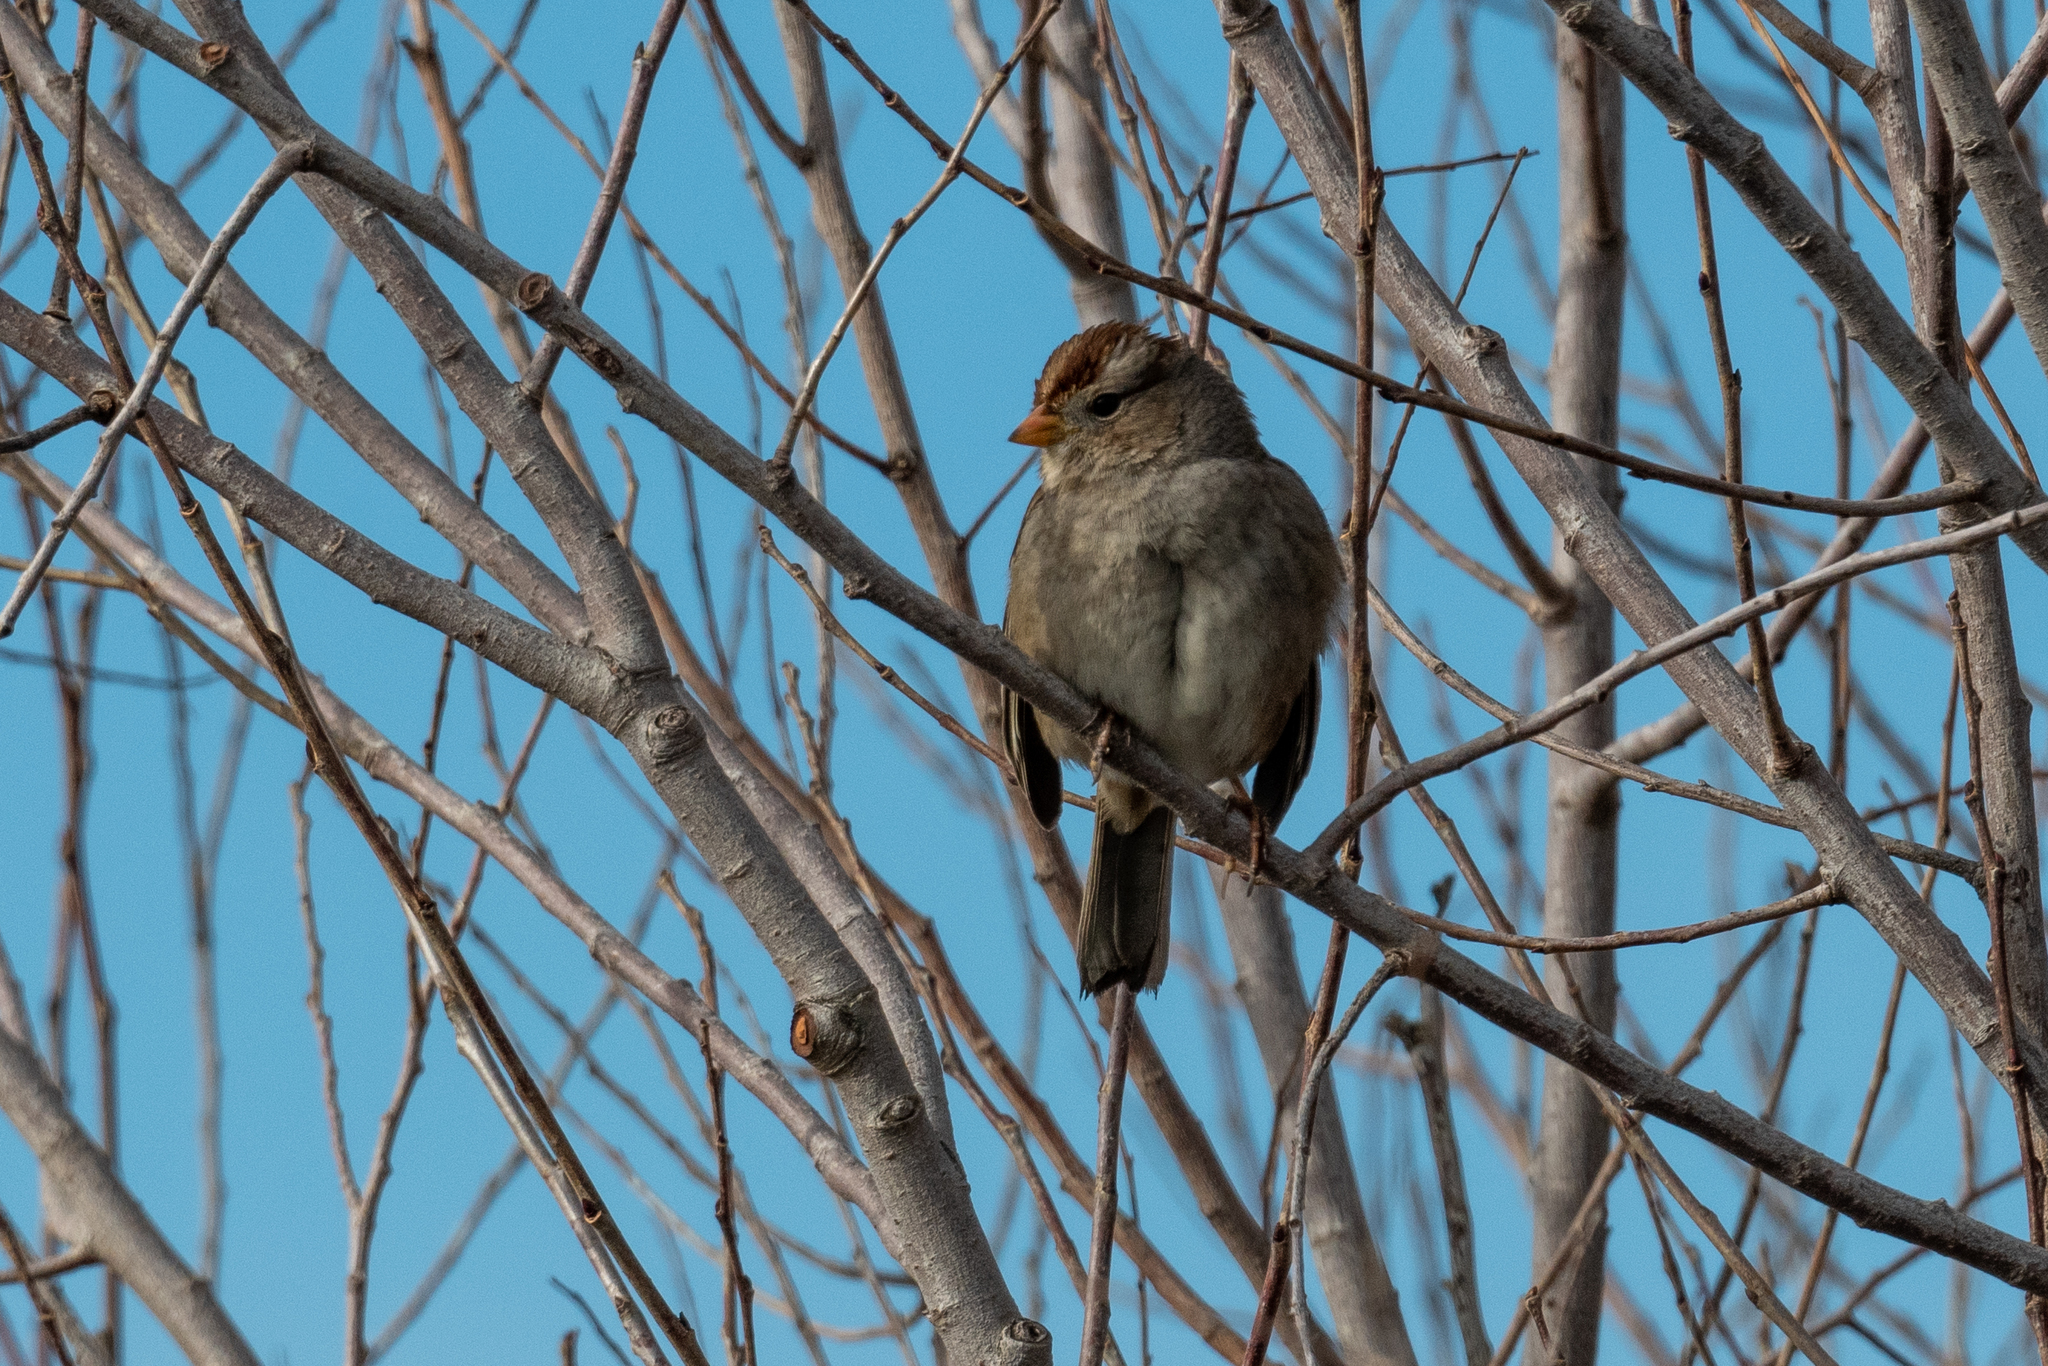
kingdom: Animalia
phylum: Chordata
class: Aves
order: Passeriformes
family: Passerellidae
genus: Zonotrichia
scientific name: Zonotrichia leucophrys
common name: White-crowned sparrow
